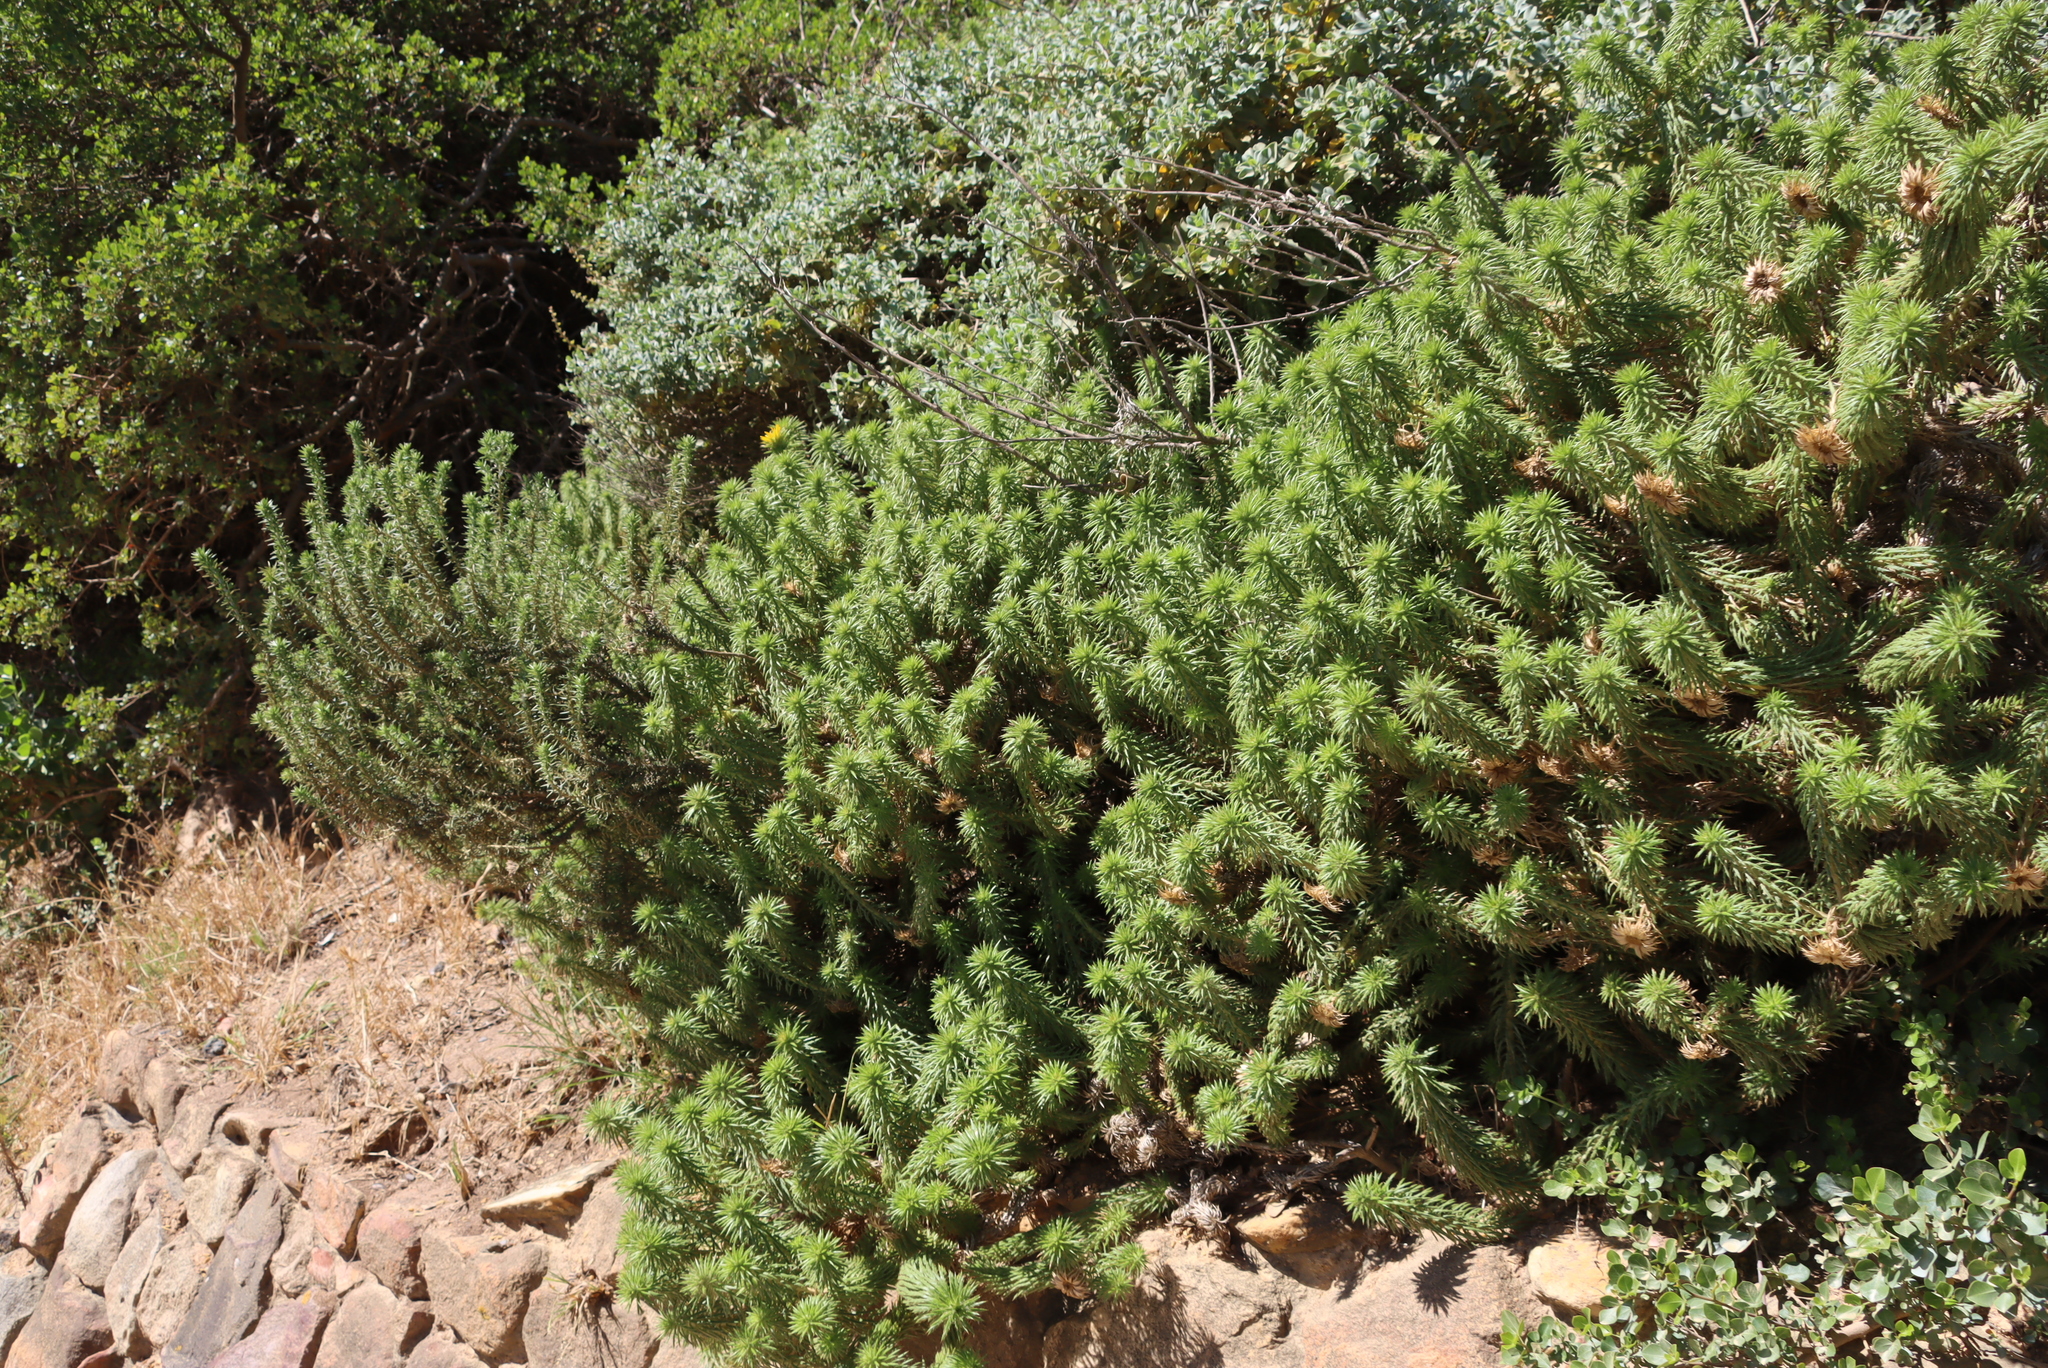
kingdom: Plantae
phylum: Tracheophyta
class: Magnoliopsida
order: Asterales
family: Asteraceae
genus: Cullumia
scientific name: Cullumia squarrosa
